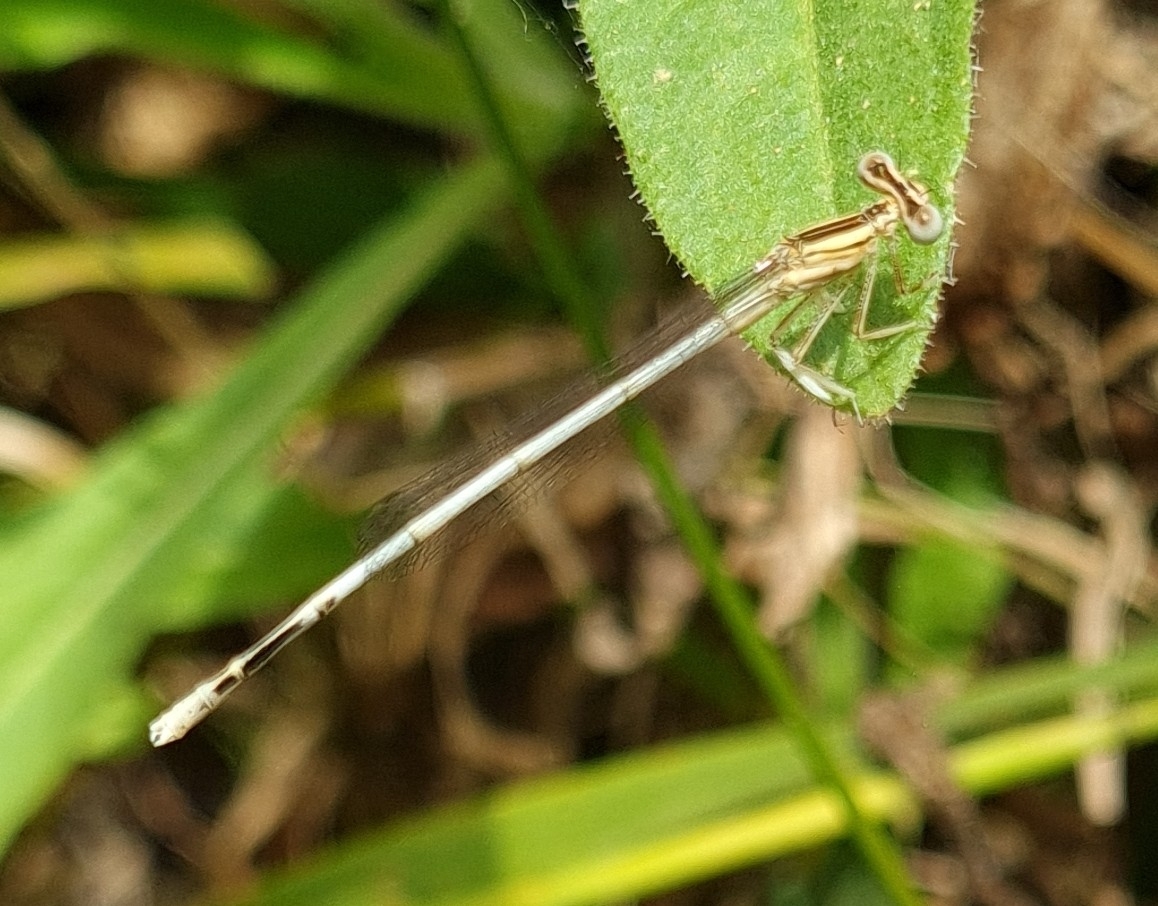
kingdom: Animalia
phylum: Arthropoda
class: Insecta
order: Odonata
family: Platycnemididae
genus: Platycnemis
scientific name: Platycnemis latipes
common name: White featherleg
